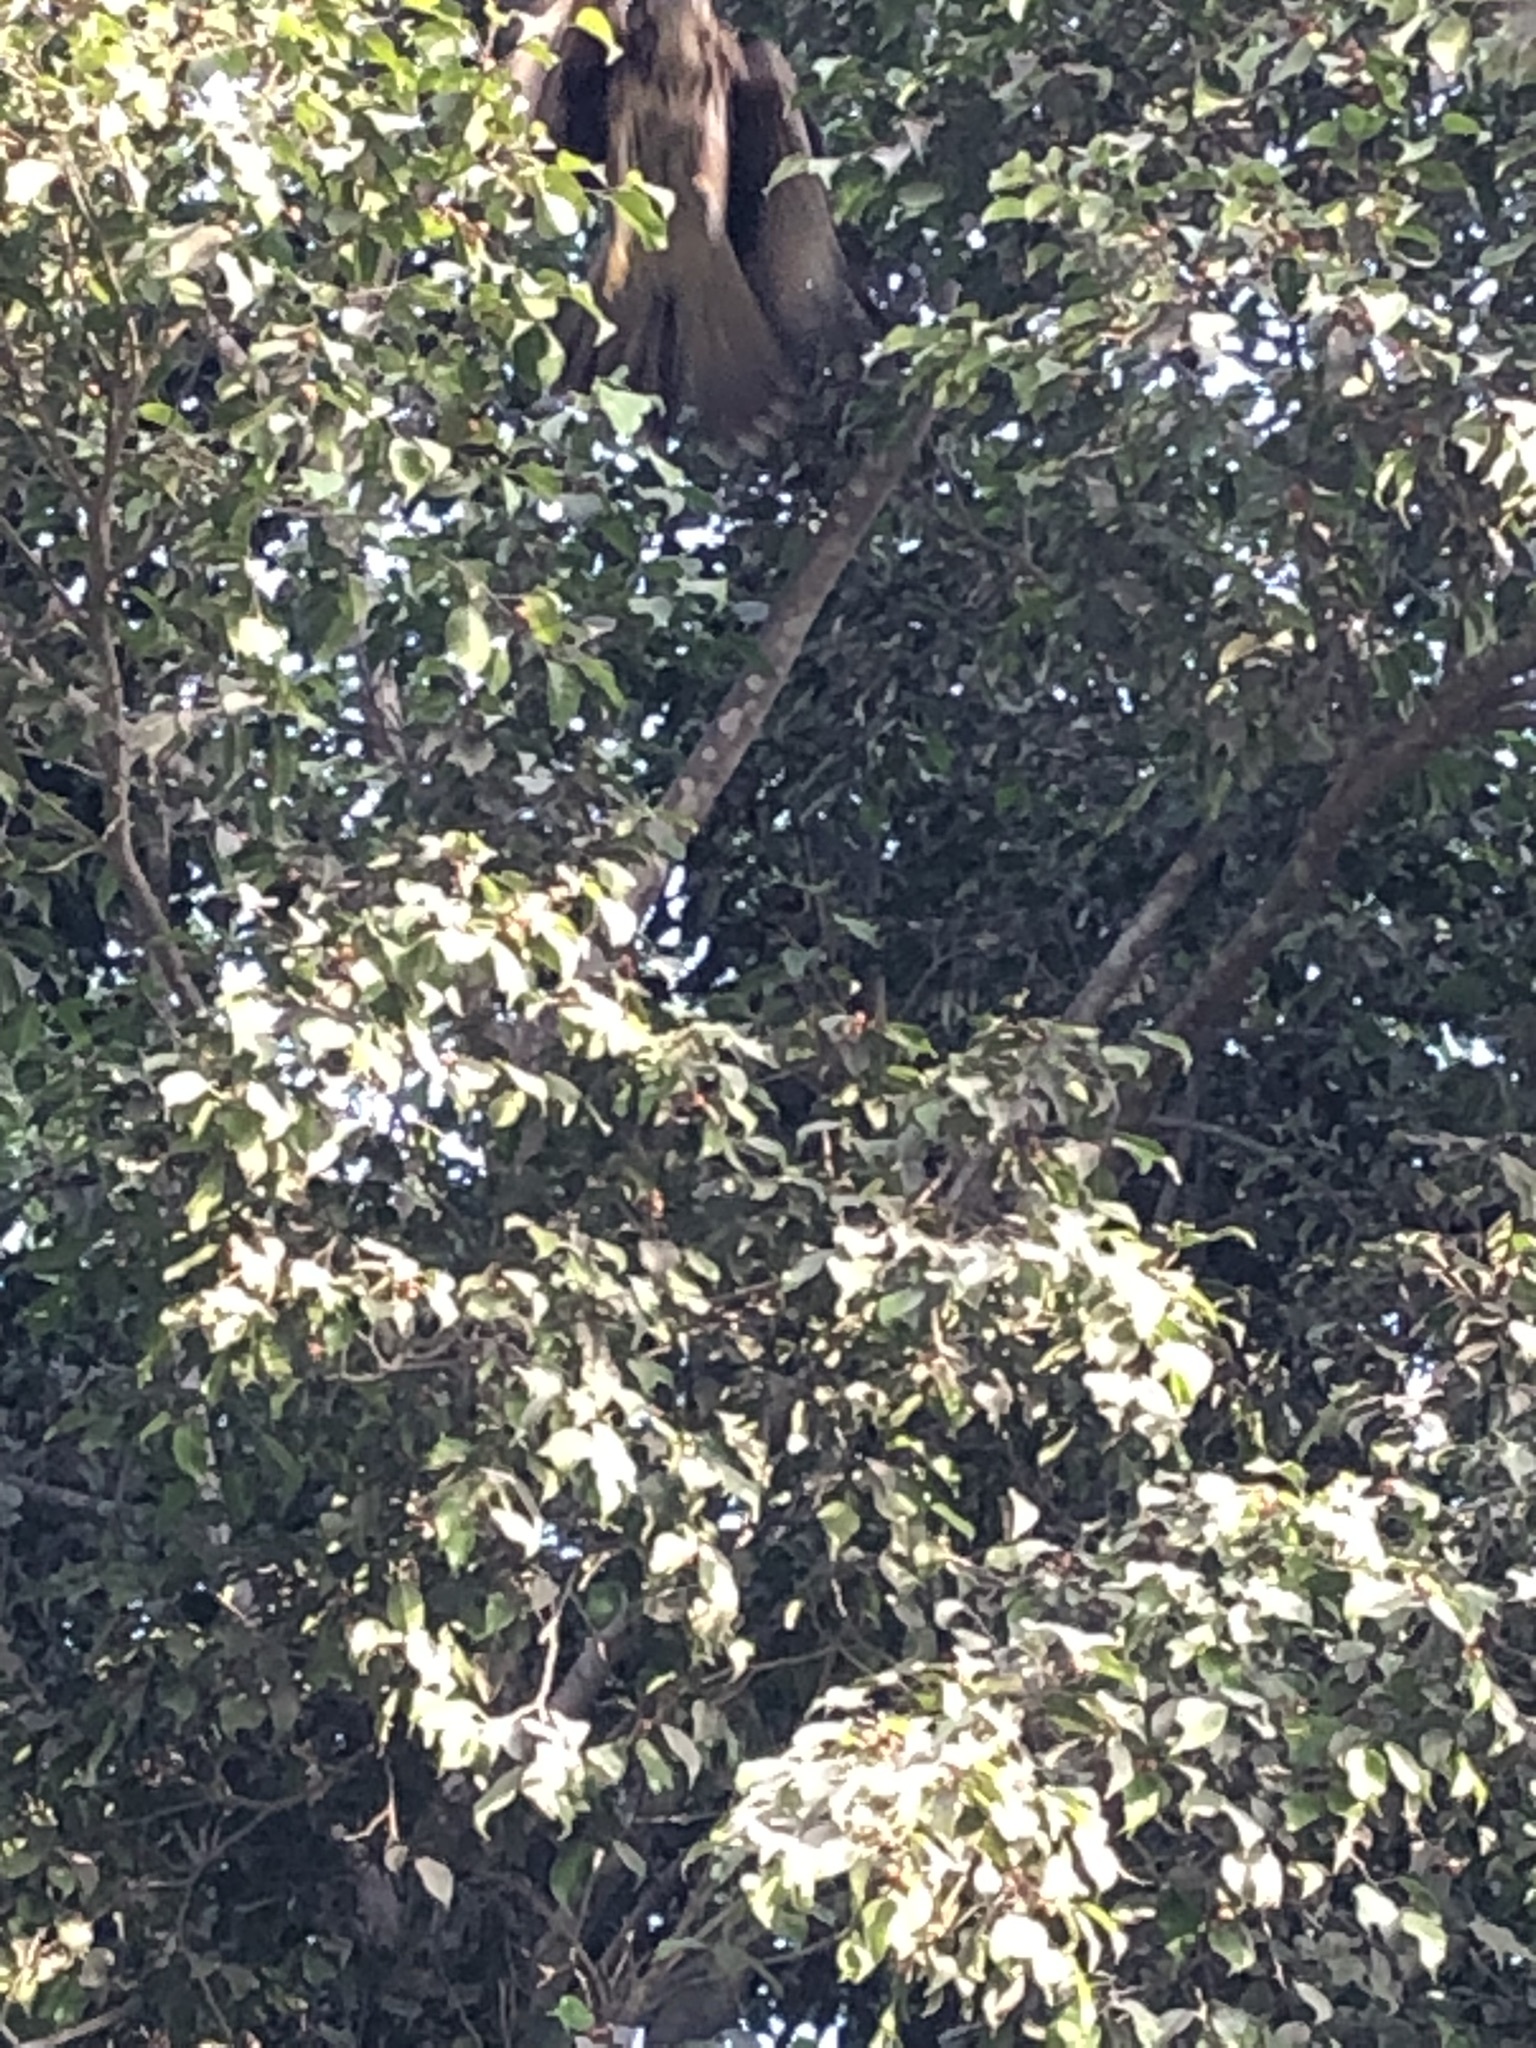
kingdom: Animalia
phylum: Chordata
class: Aves
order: Accipitriformes
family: Accipitridae
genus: Parabuteo
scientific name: Parabuteo unicinctus
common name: Harris's hawk
